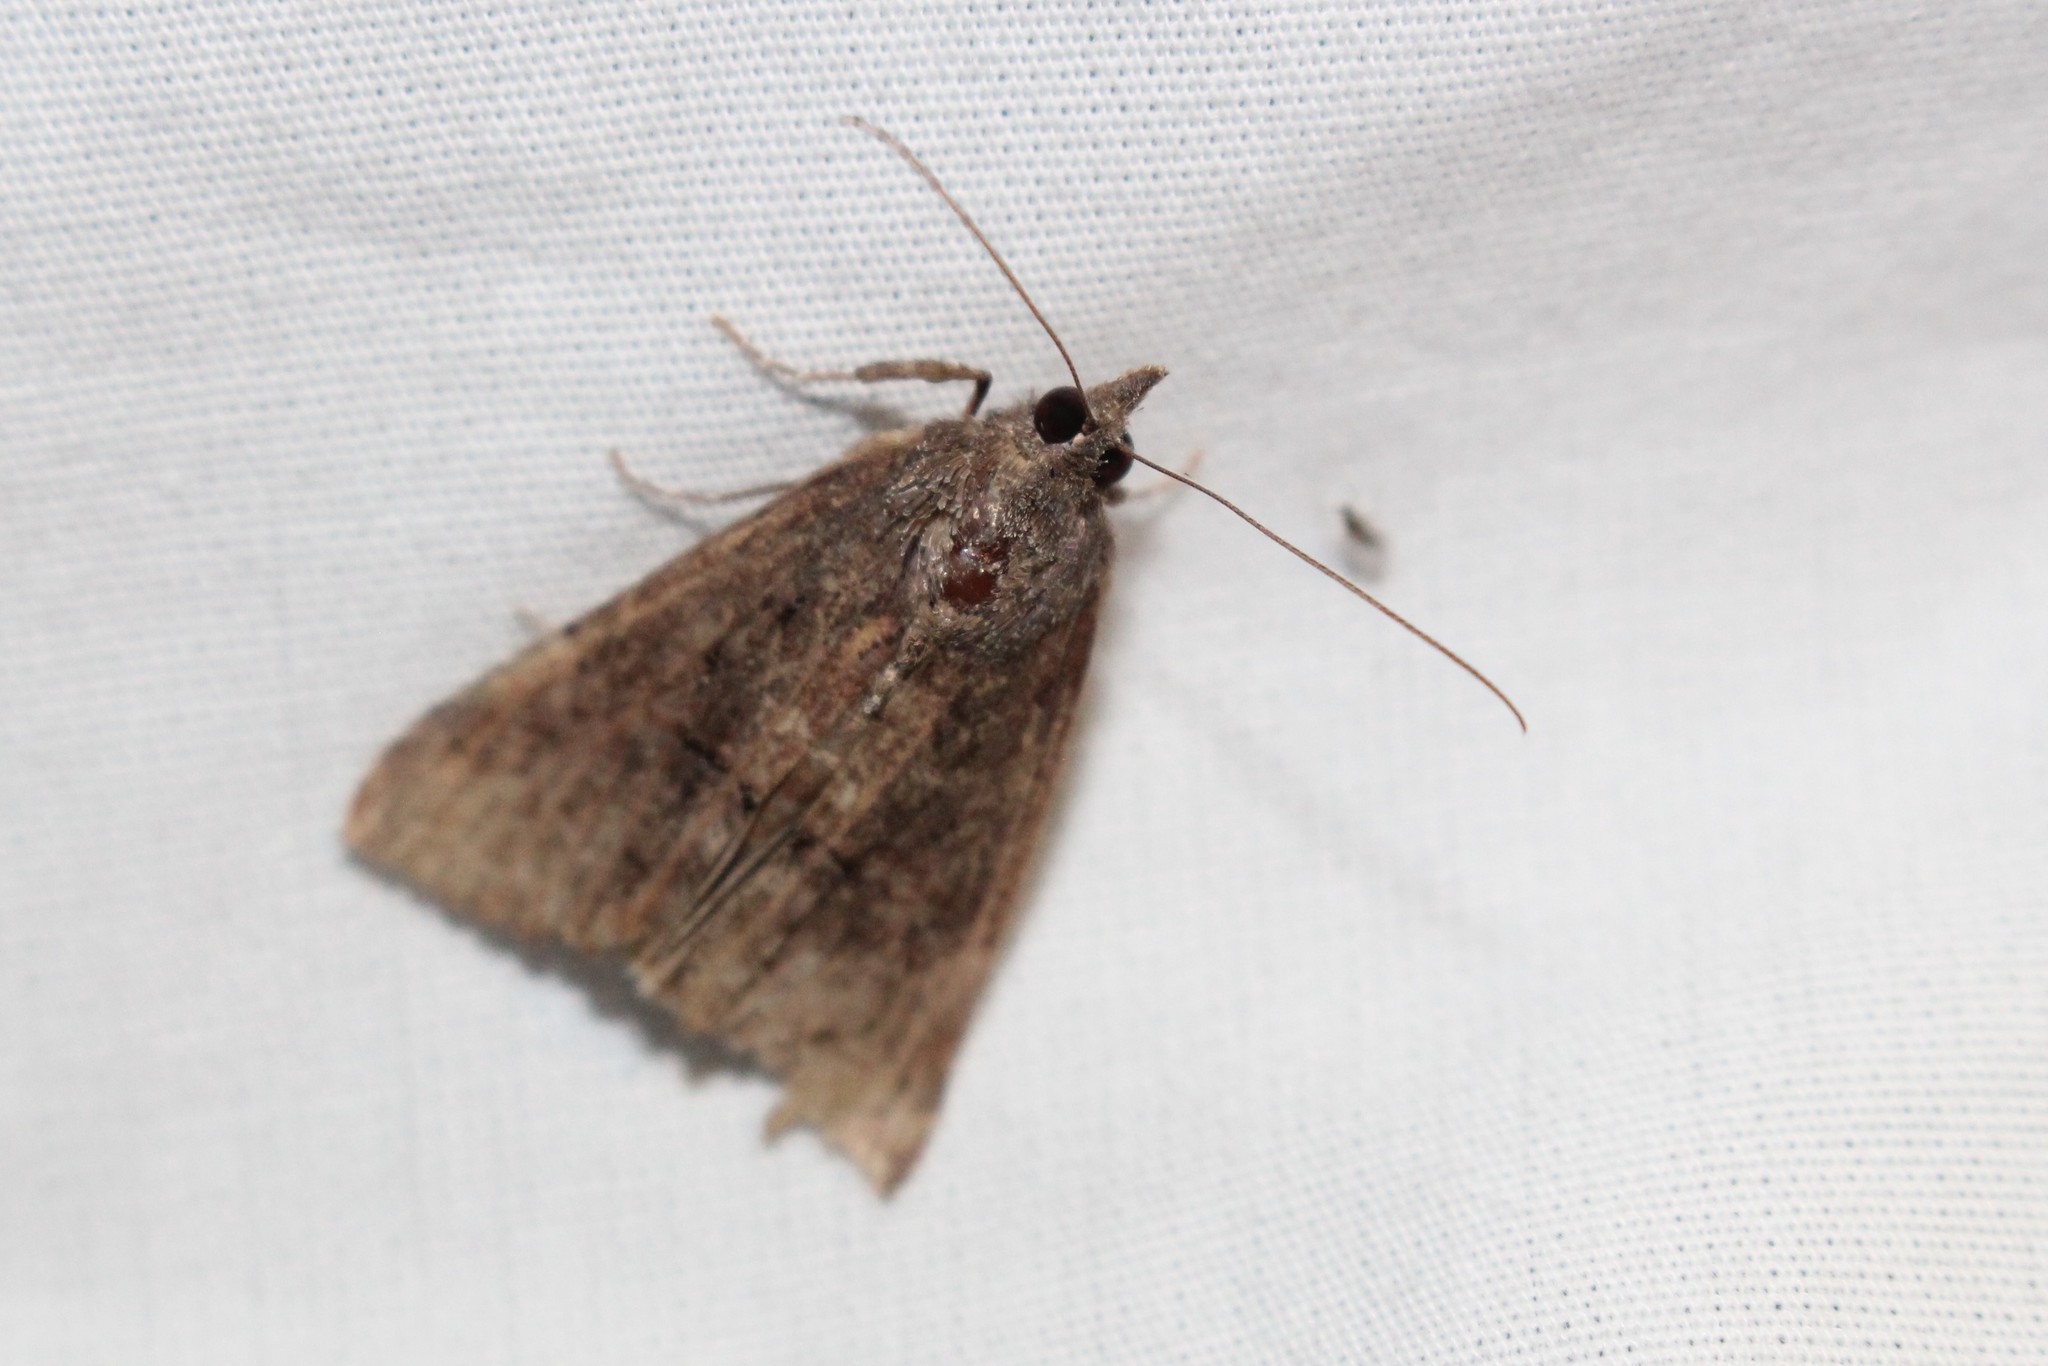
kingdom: Animalia
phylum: Arthropoda
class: Insecta
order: Lepidoptera
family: Erebidae
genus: Hypena
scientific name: Hypena scabra
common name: Green cloverworm
